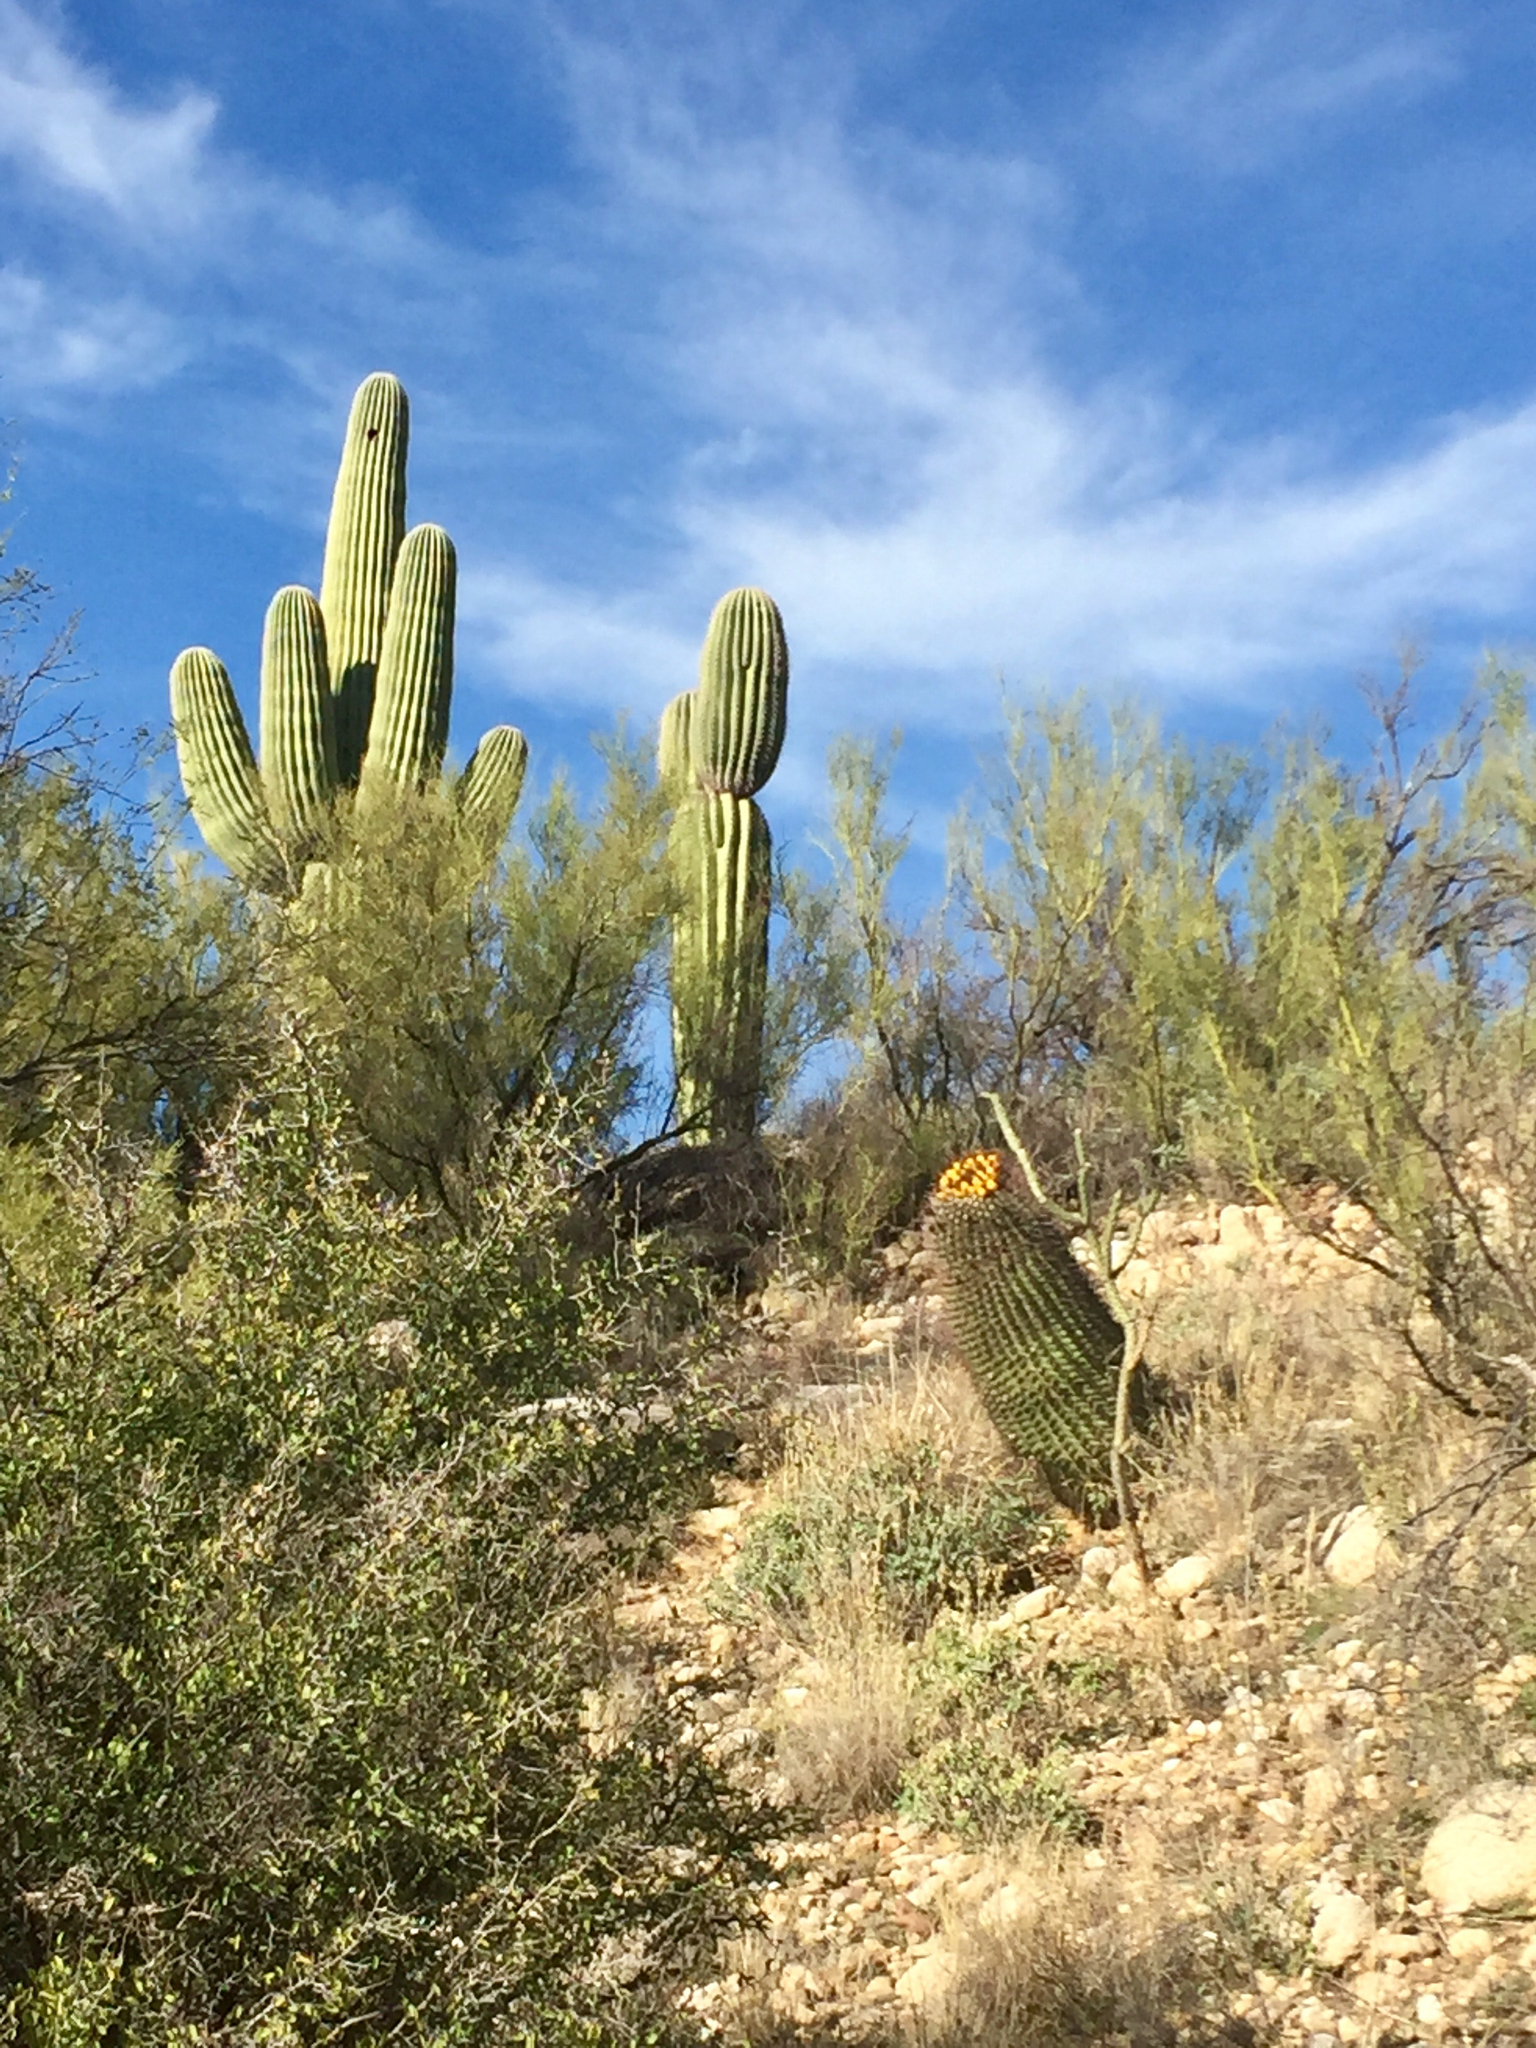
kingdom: Plantae
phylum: Tracheophyta
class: Magnoliopsida
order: Caryophyllales
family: Cactaceae
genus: Carnegiea
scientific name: Carnegiea gigantea
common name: Saguaro
